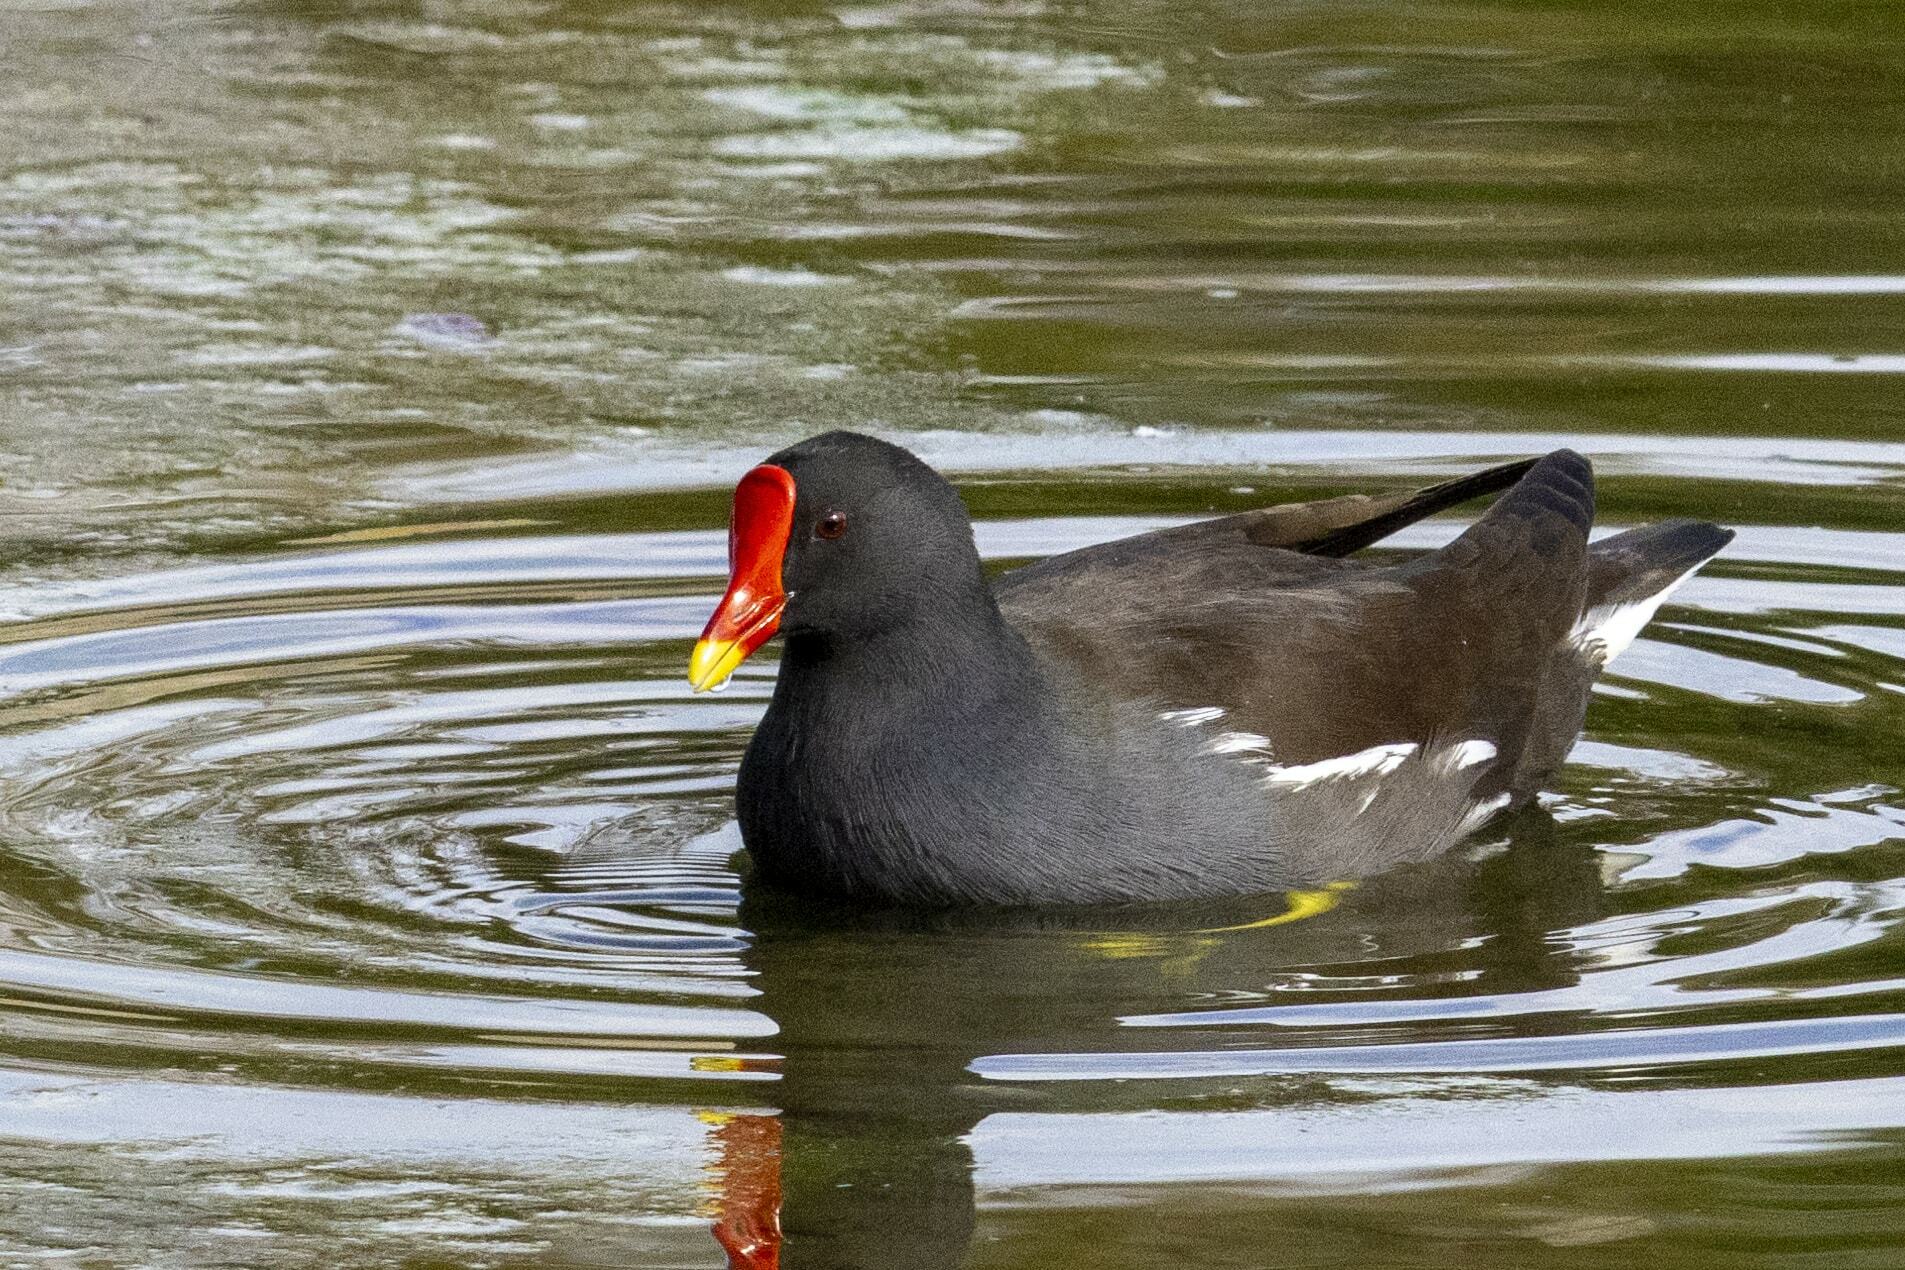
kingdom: Animalia
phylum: Chordata
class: Aves
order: Gruiformes
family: Rallidae
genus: Gallinula
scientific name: Gallinula chloropus
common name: Common moorhen
